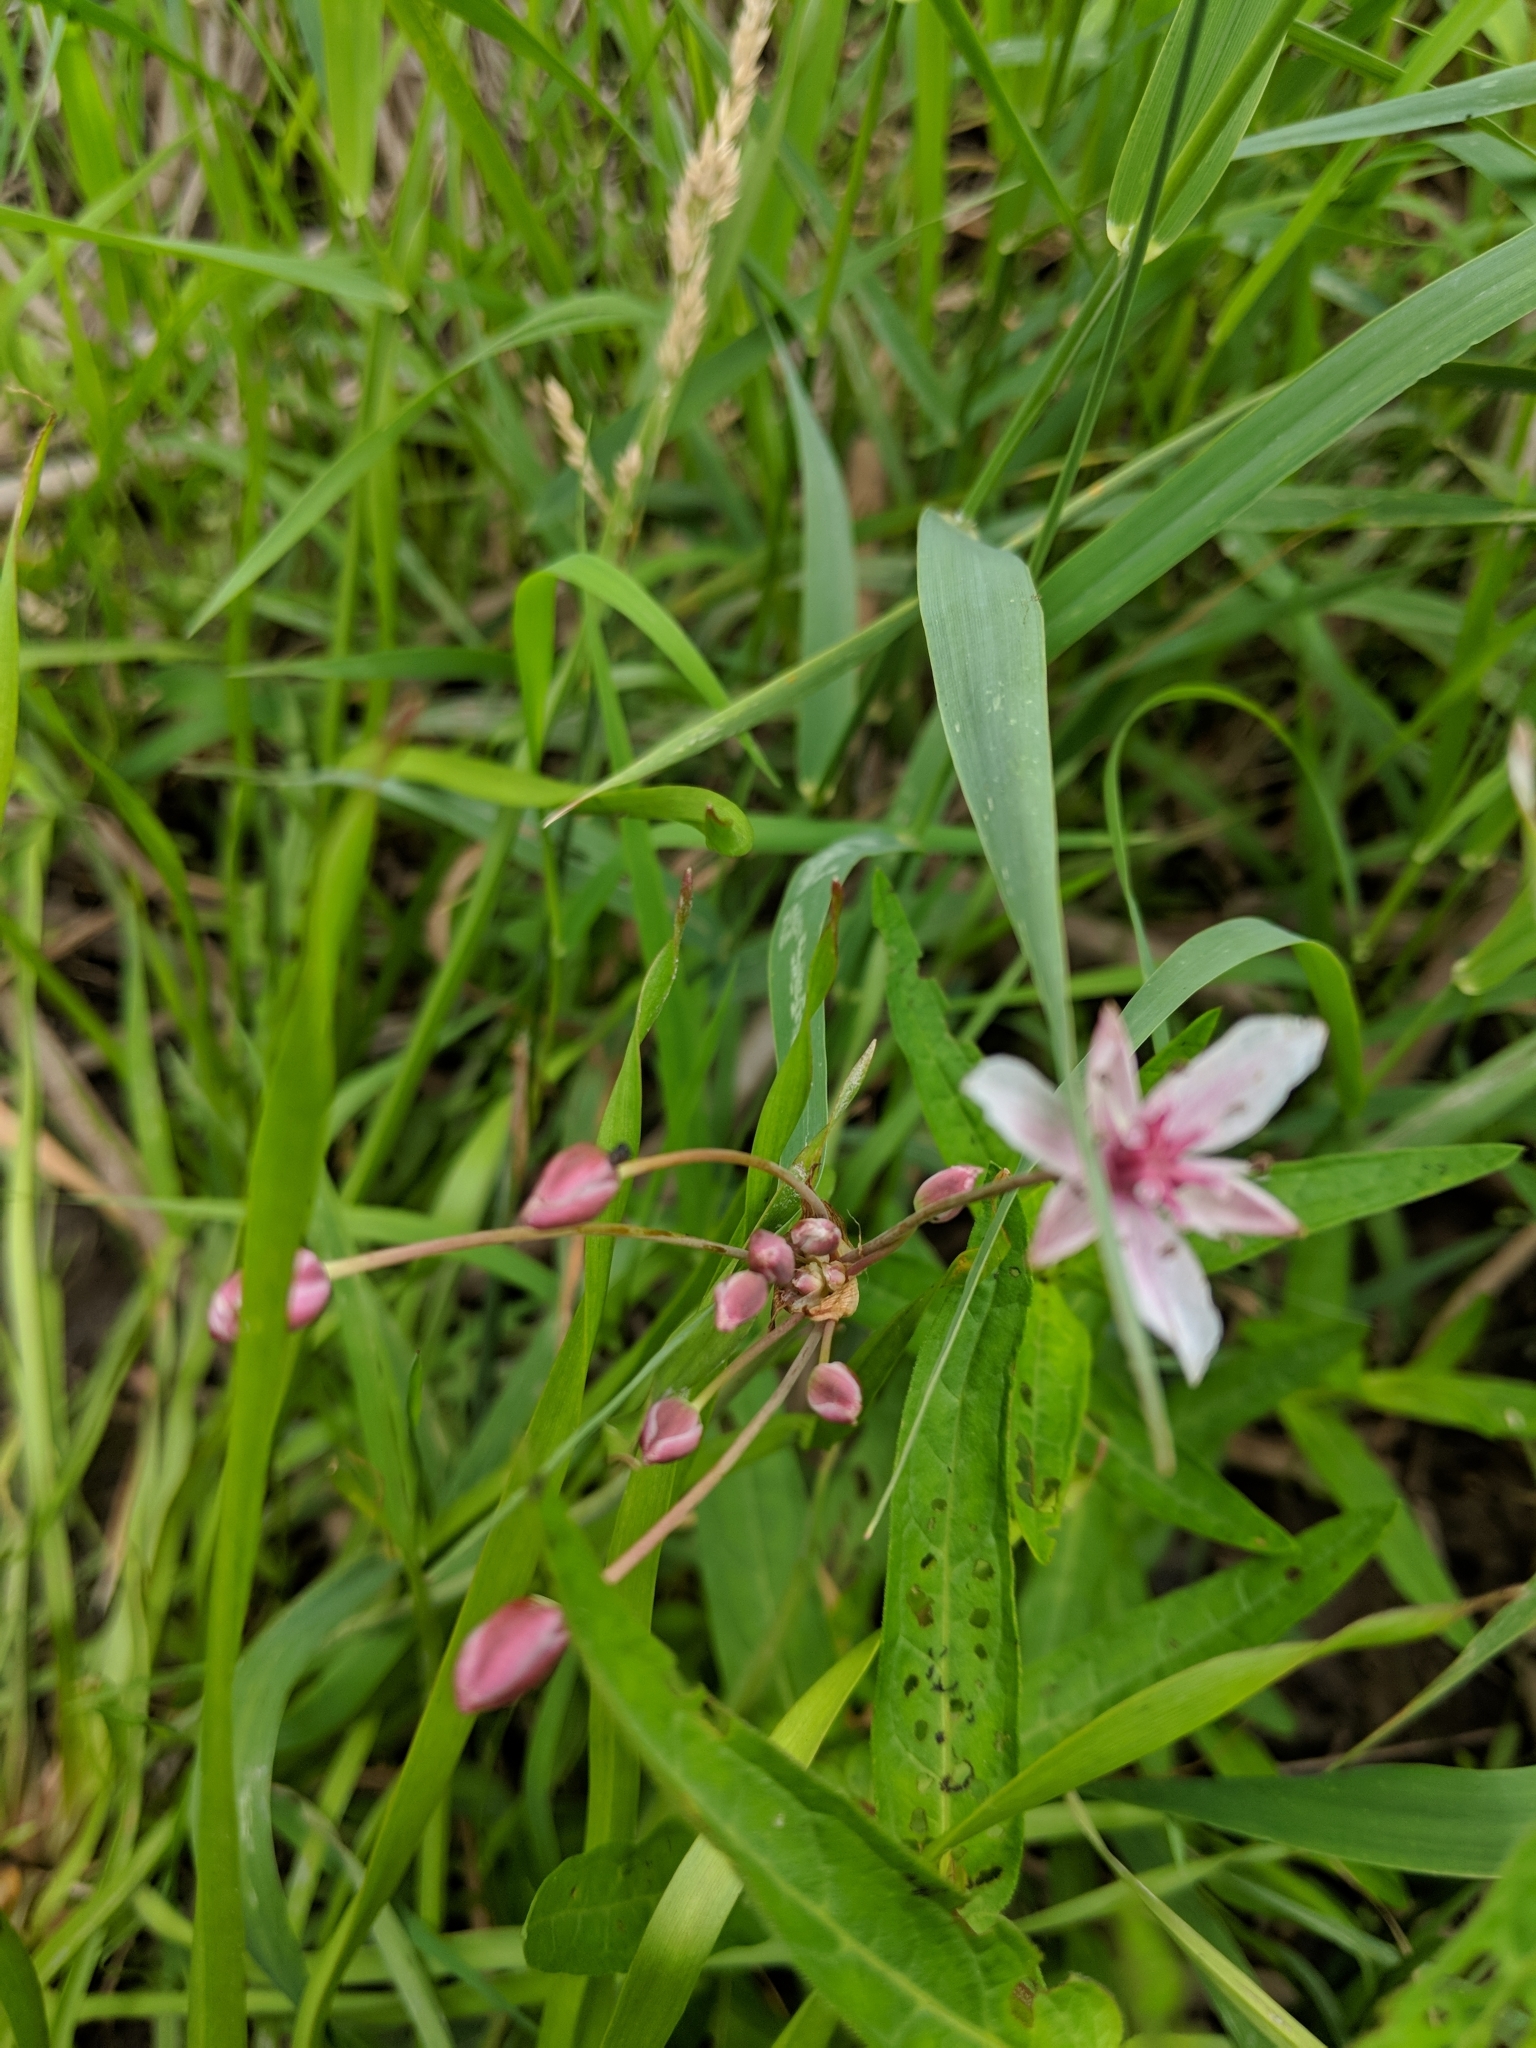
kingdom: Plantae
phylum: Tracheophyta
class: Liliopsida
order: Alismatales
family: Butomaceae
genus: Butomus
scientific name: Butomus umbellatus
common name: Flowering-rush
